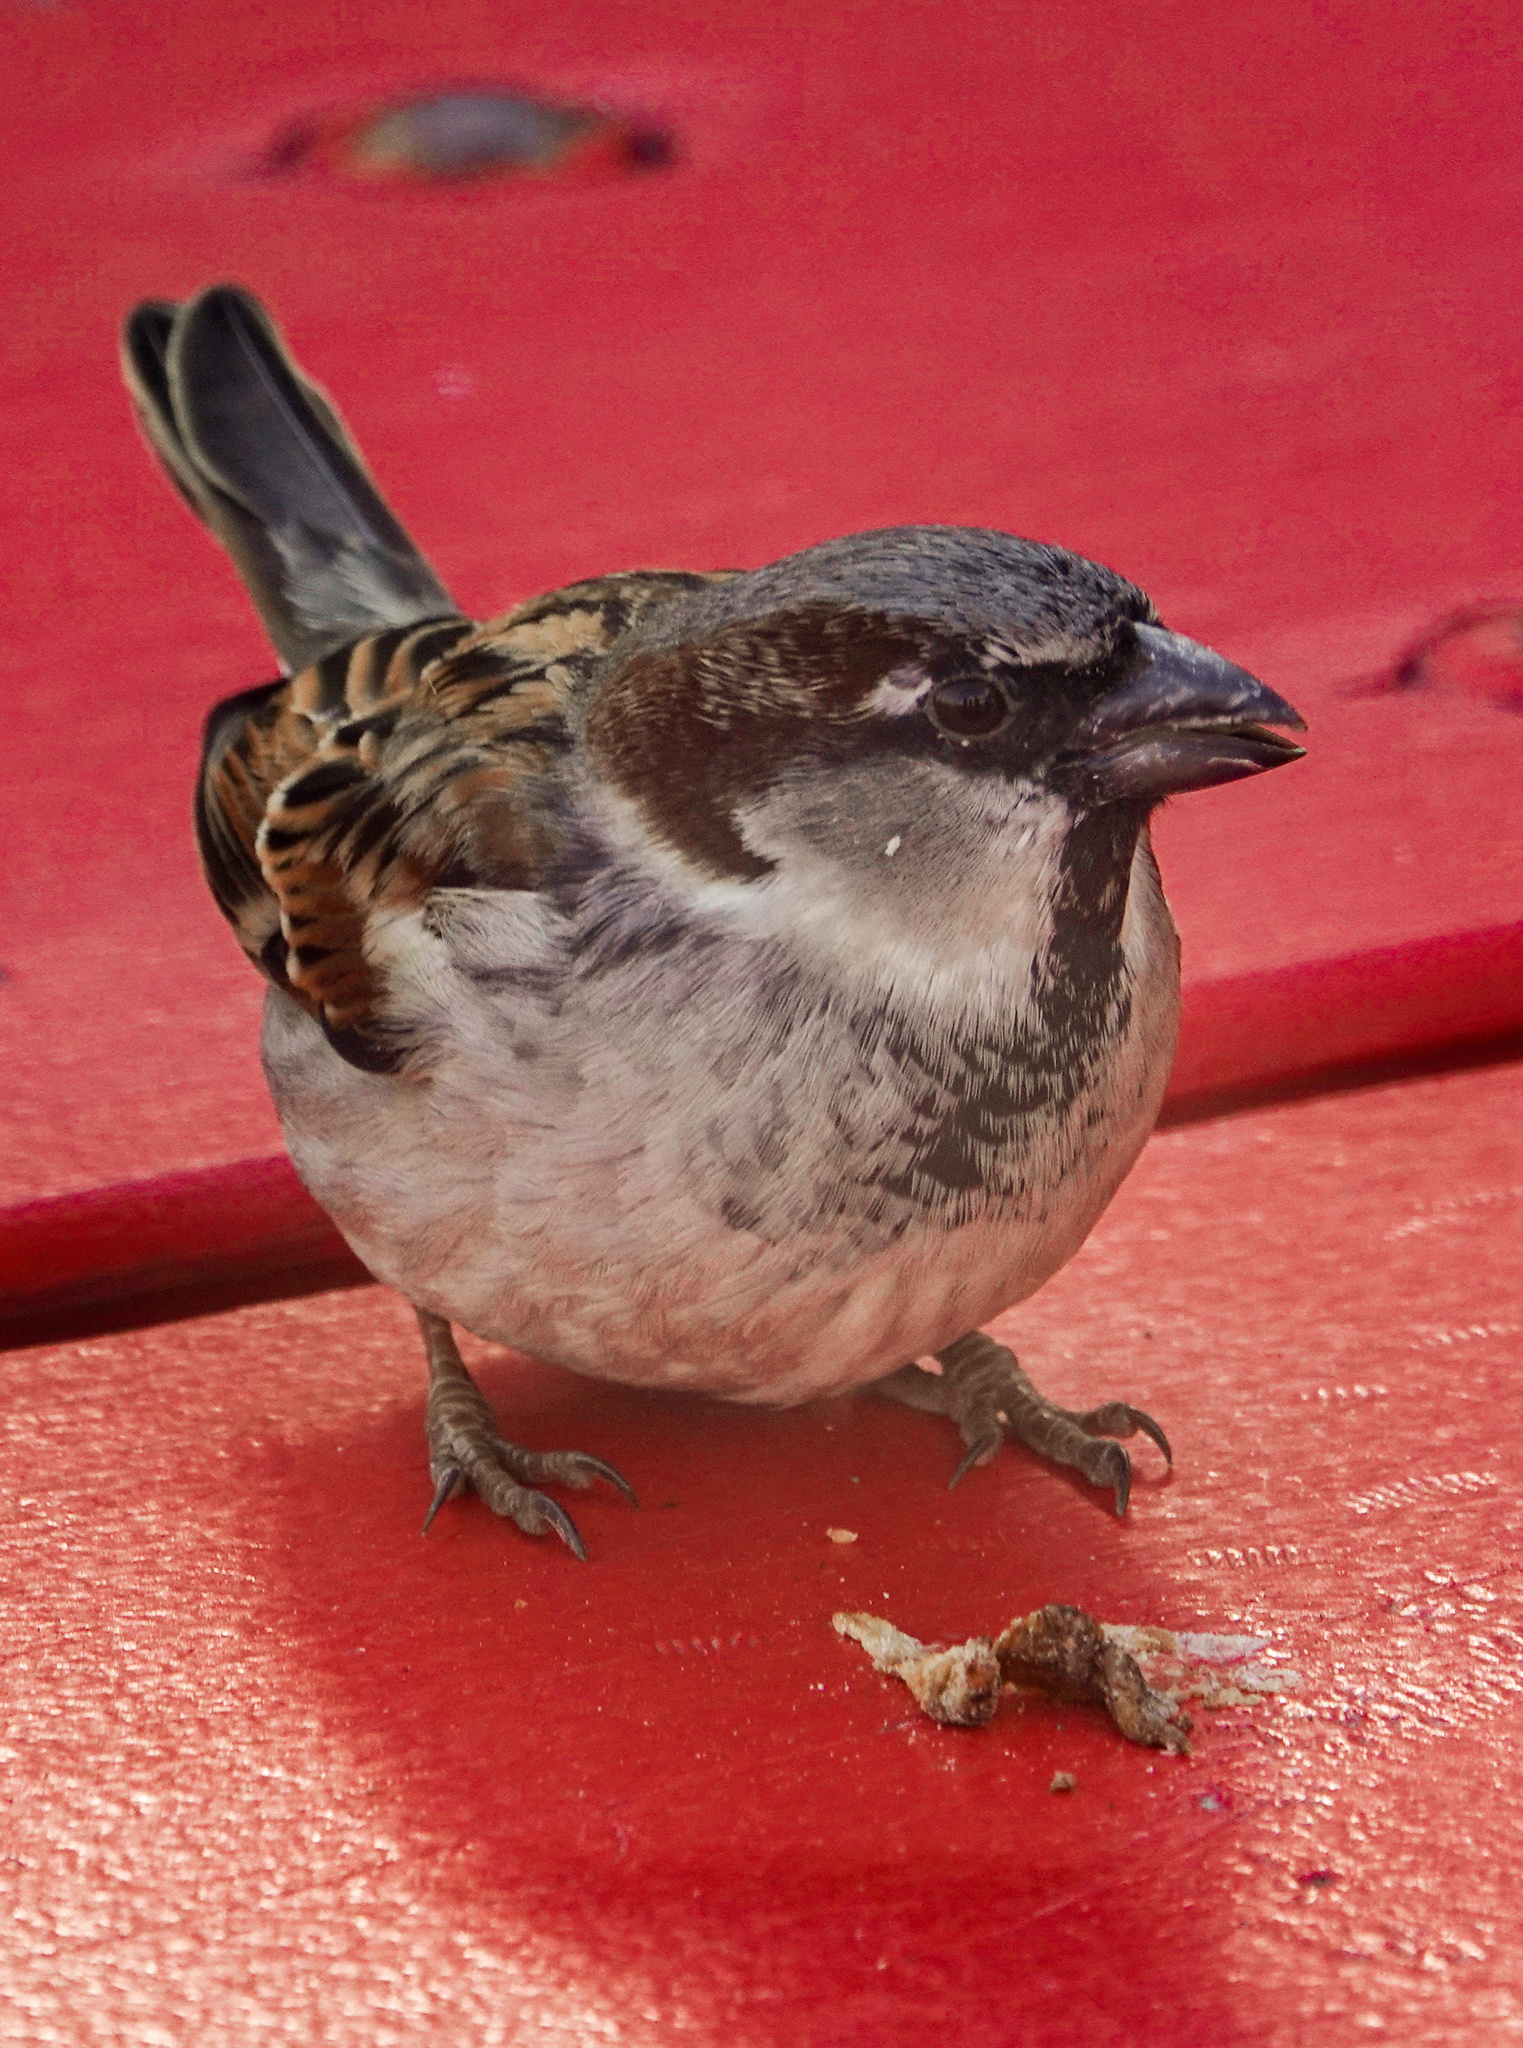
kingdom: Animalia
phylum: Chordata
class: Aves
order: Passeriformes
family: Passeridae
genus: Passer
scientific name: Passer domesticus
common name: House sparrow
